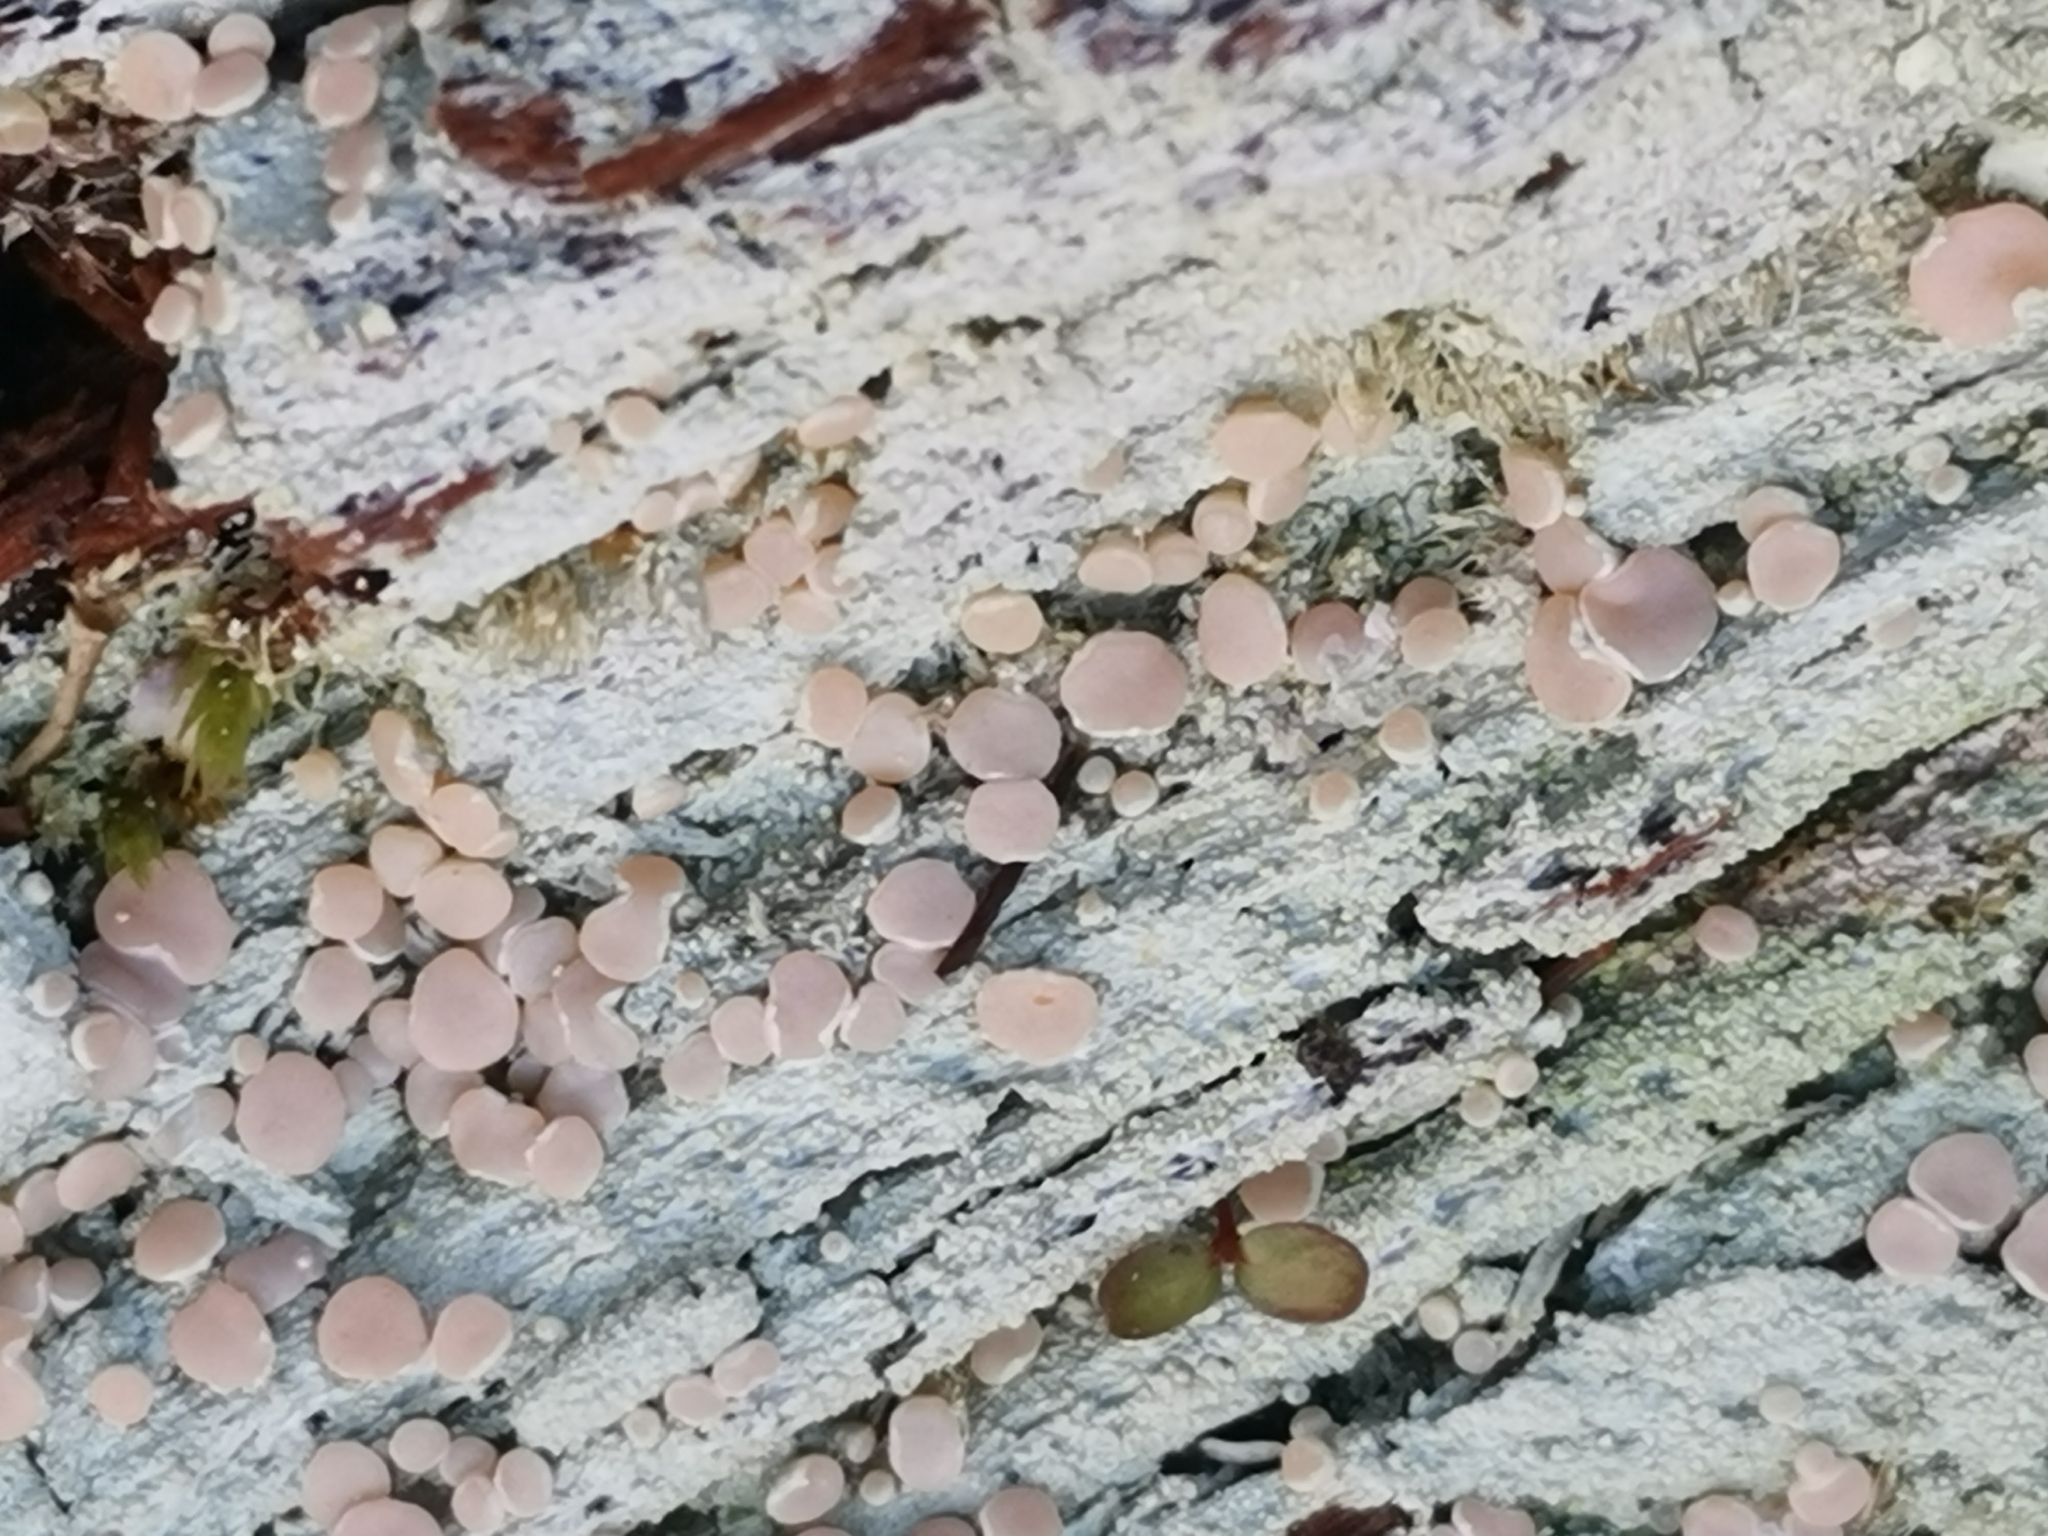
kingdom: Fungi
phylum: Ascomycota
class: Lecanoromycetes
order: Pertusariales
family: Icmadophilaceae
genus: Icmadophila
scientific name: Icmadophila ericetorum
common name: Candy lichen
